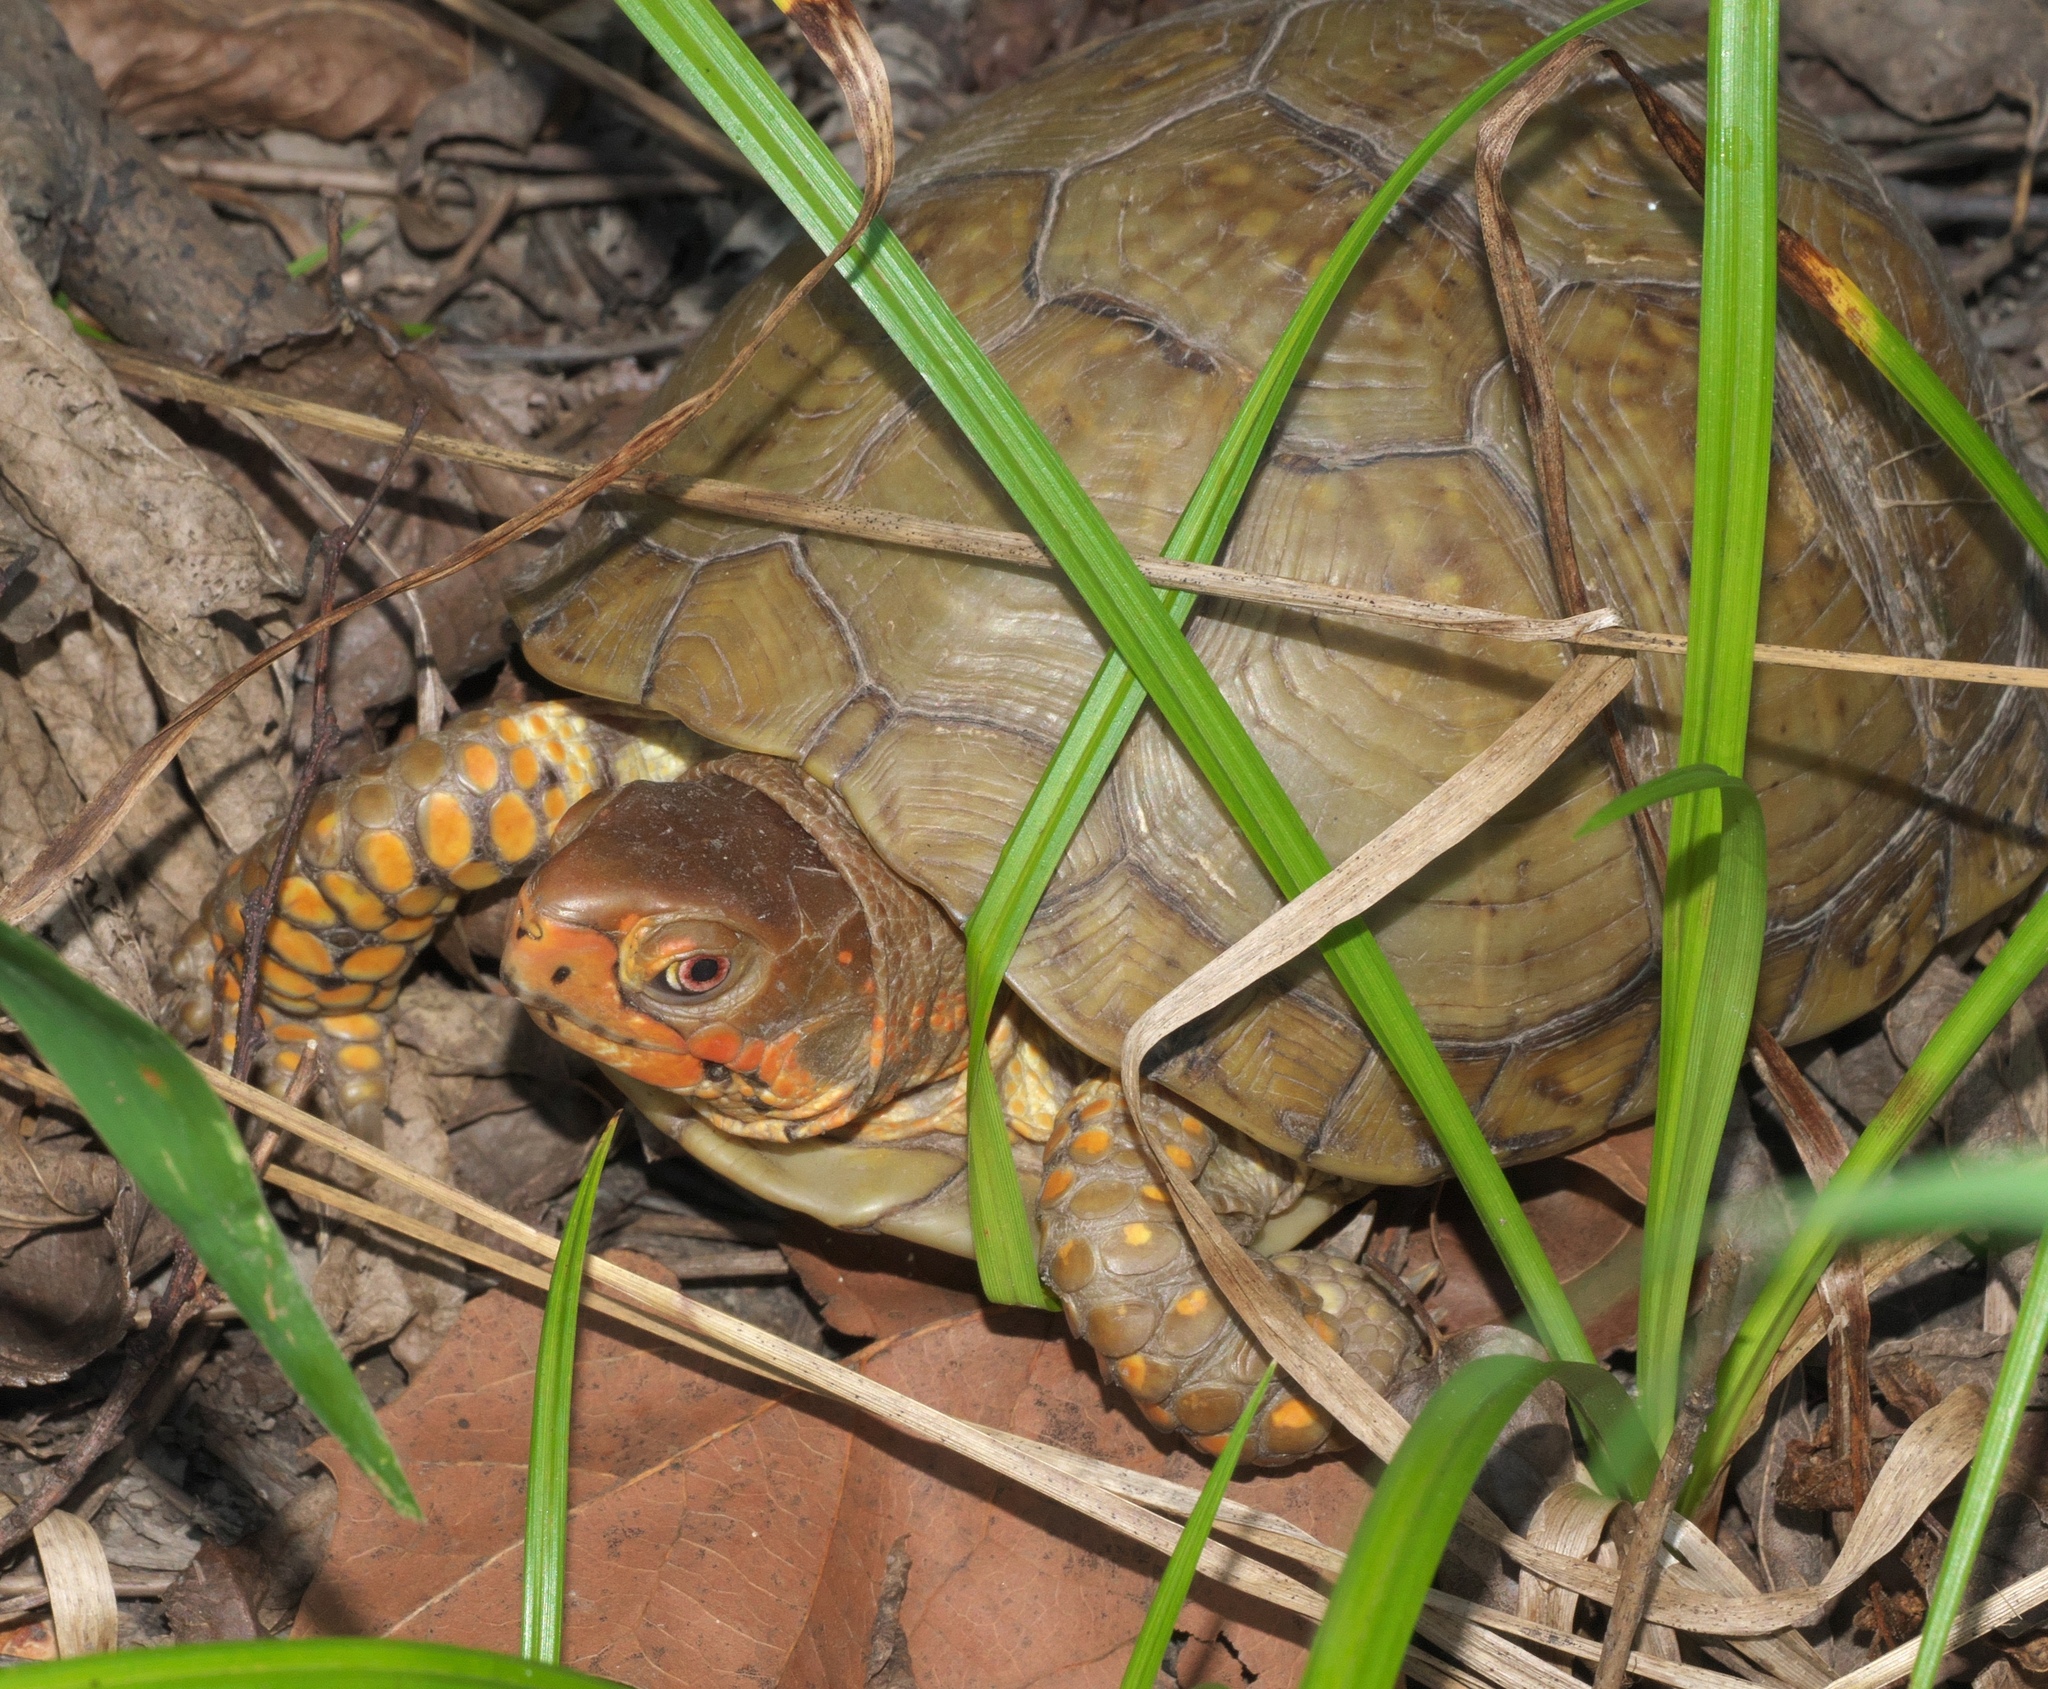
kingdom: Animalia
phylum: Chordata
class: Testudines
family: Emydidae
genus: Terrapene
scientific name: Terrapene carolina
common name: Common box turtle
